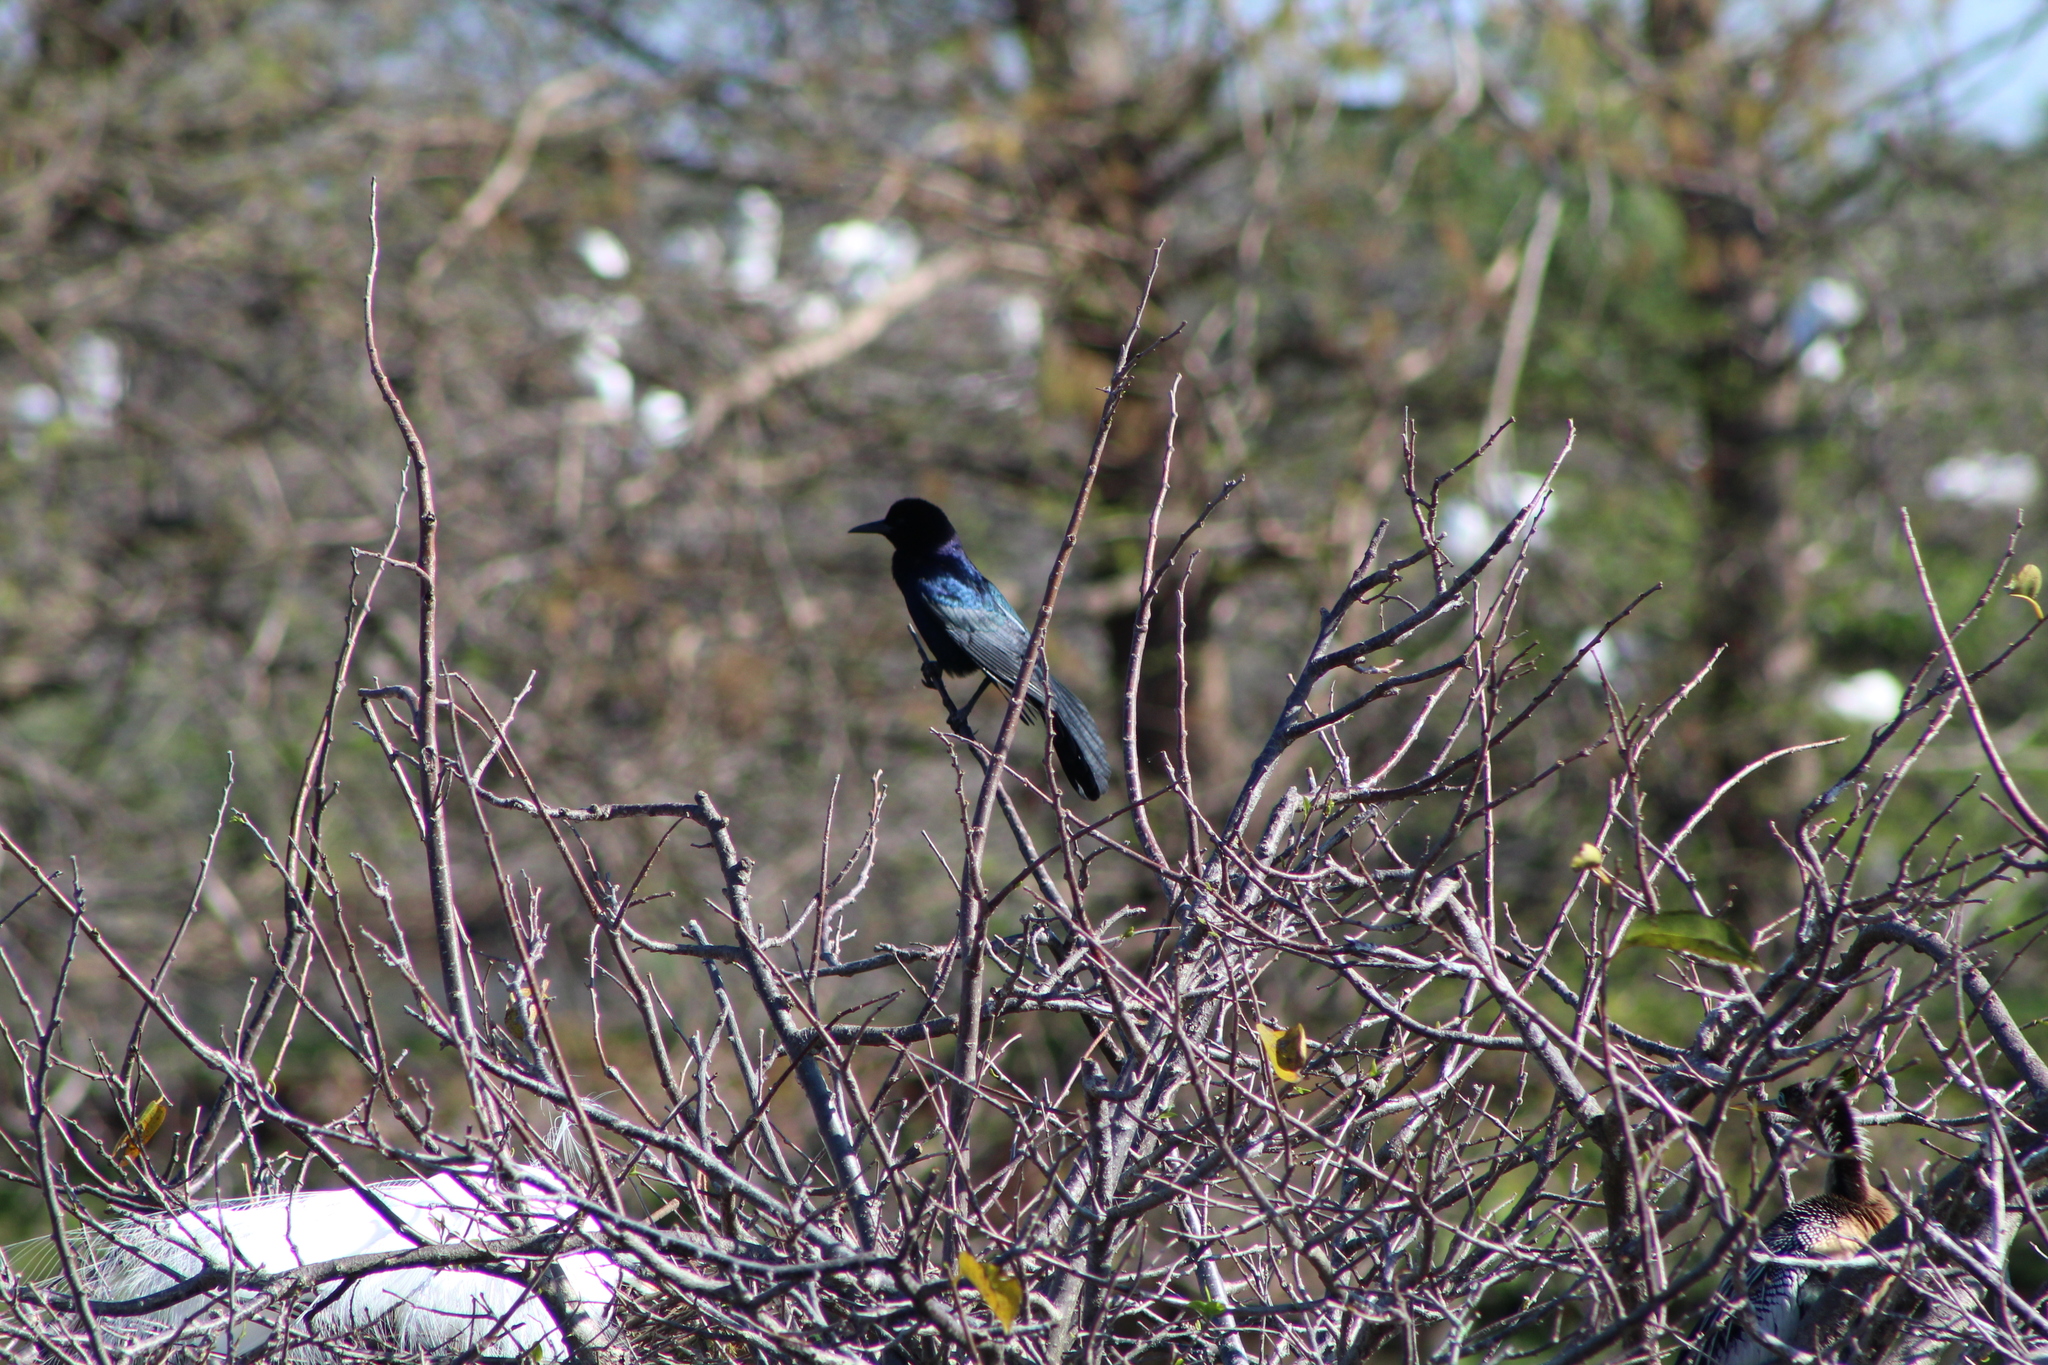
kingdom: Animalia
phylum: Chordata
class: Aves
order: Passeriformes
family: Icteridae
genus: Quiscalus
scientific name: Quiscalus major
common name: Boat-tailed grackle
